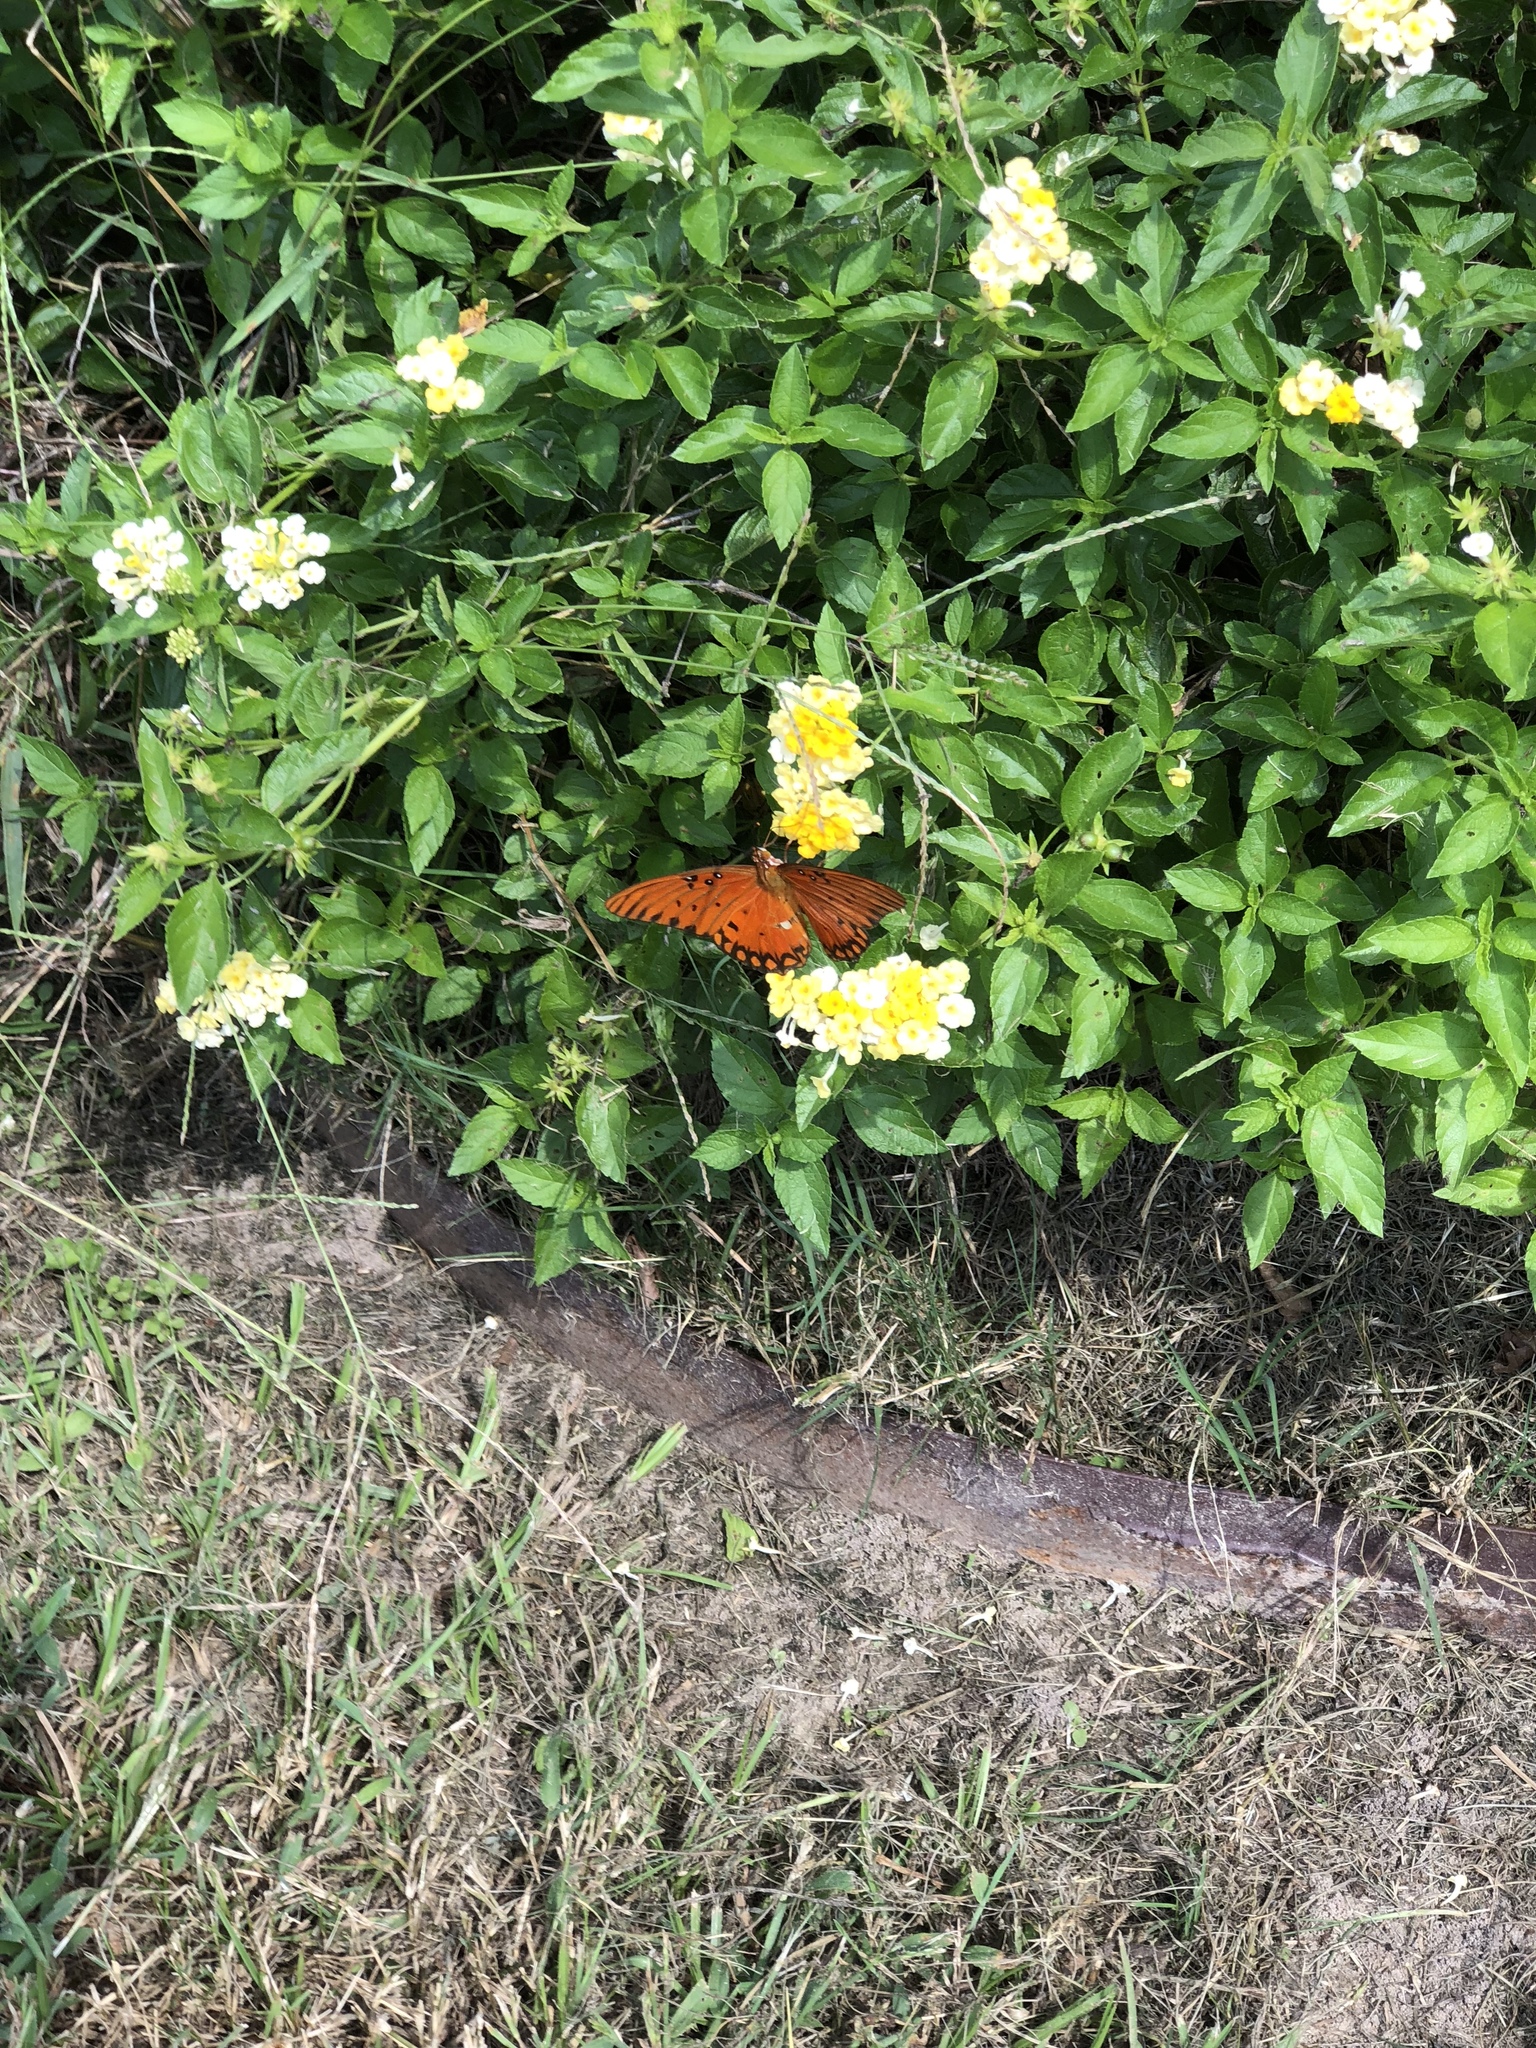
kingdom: Animalia
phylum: Arthropoda
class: Insecta
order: Lepidoptera
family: Nymphalidae
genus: Dione
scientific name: Dione vanillae
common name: Gulf fritillary
